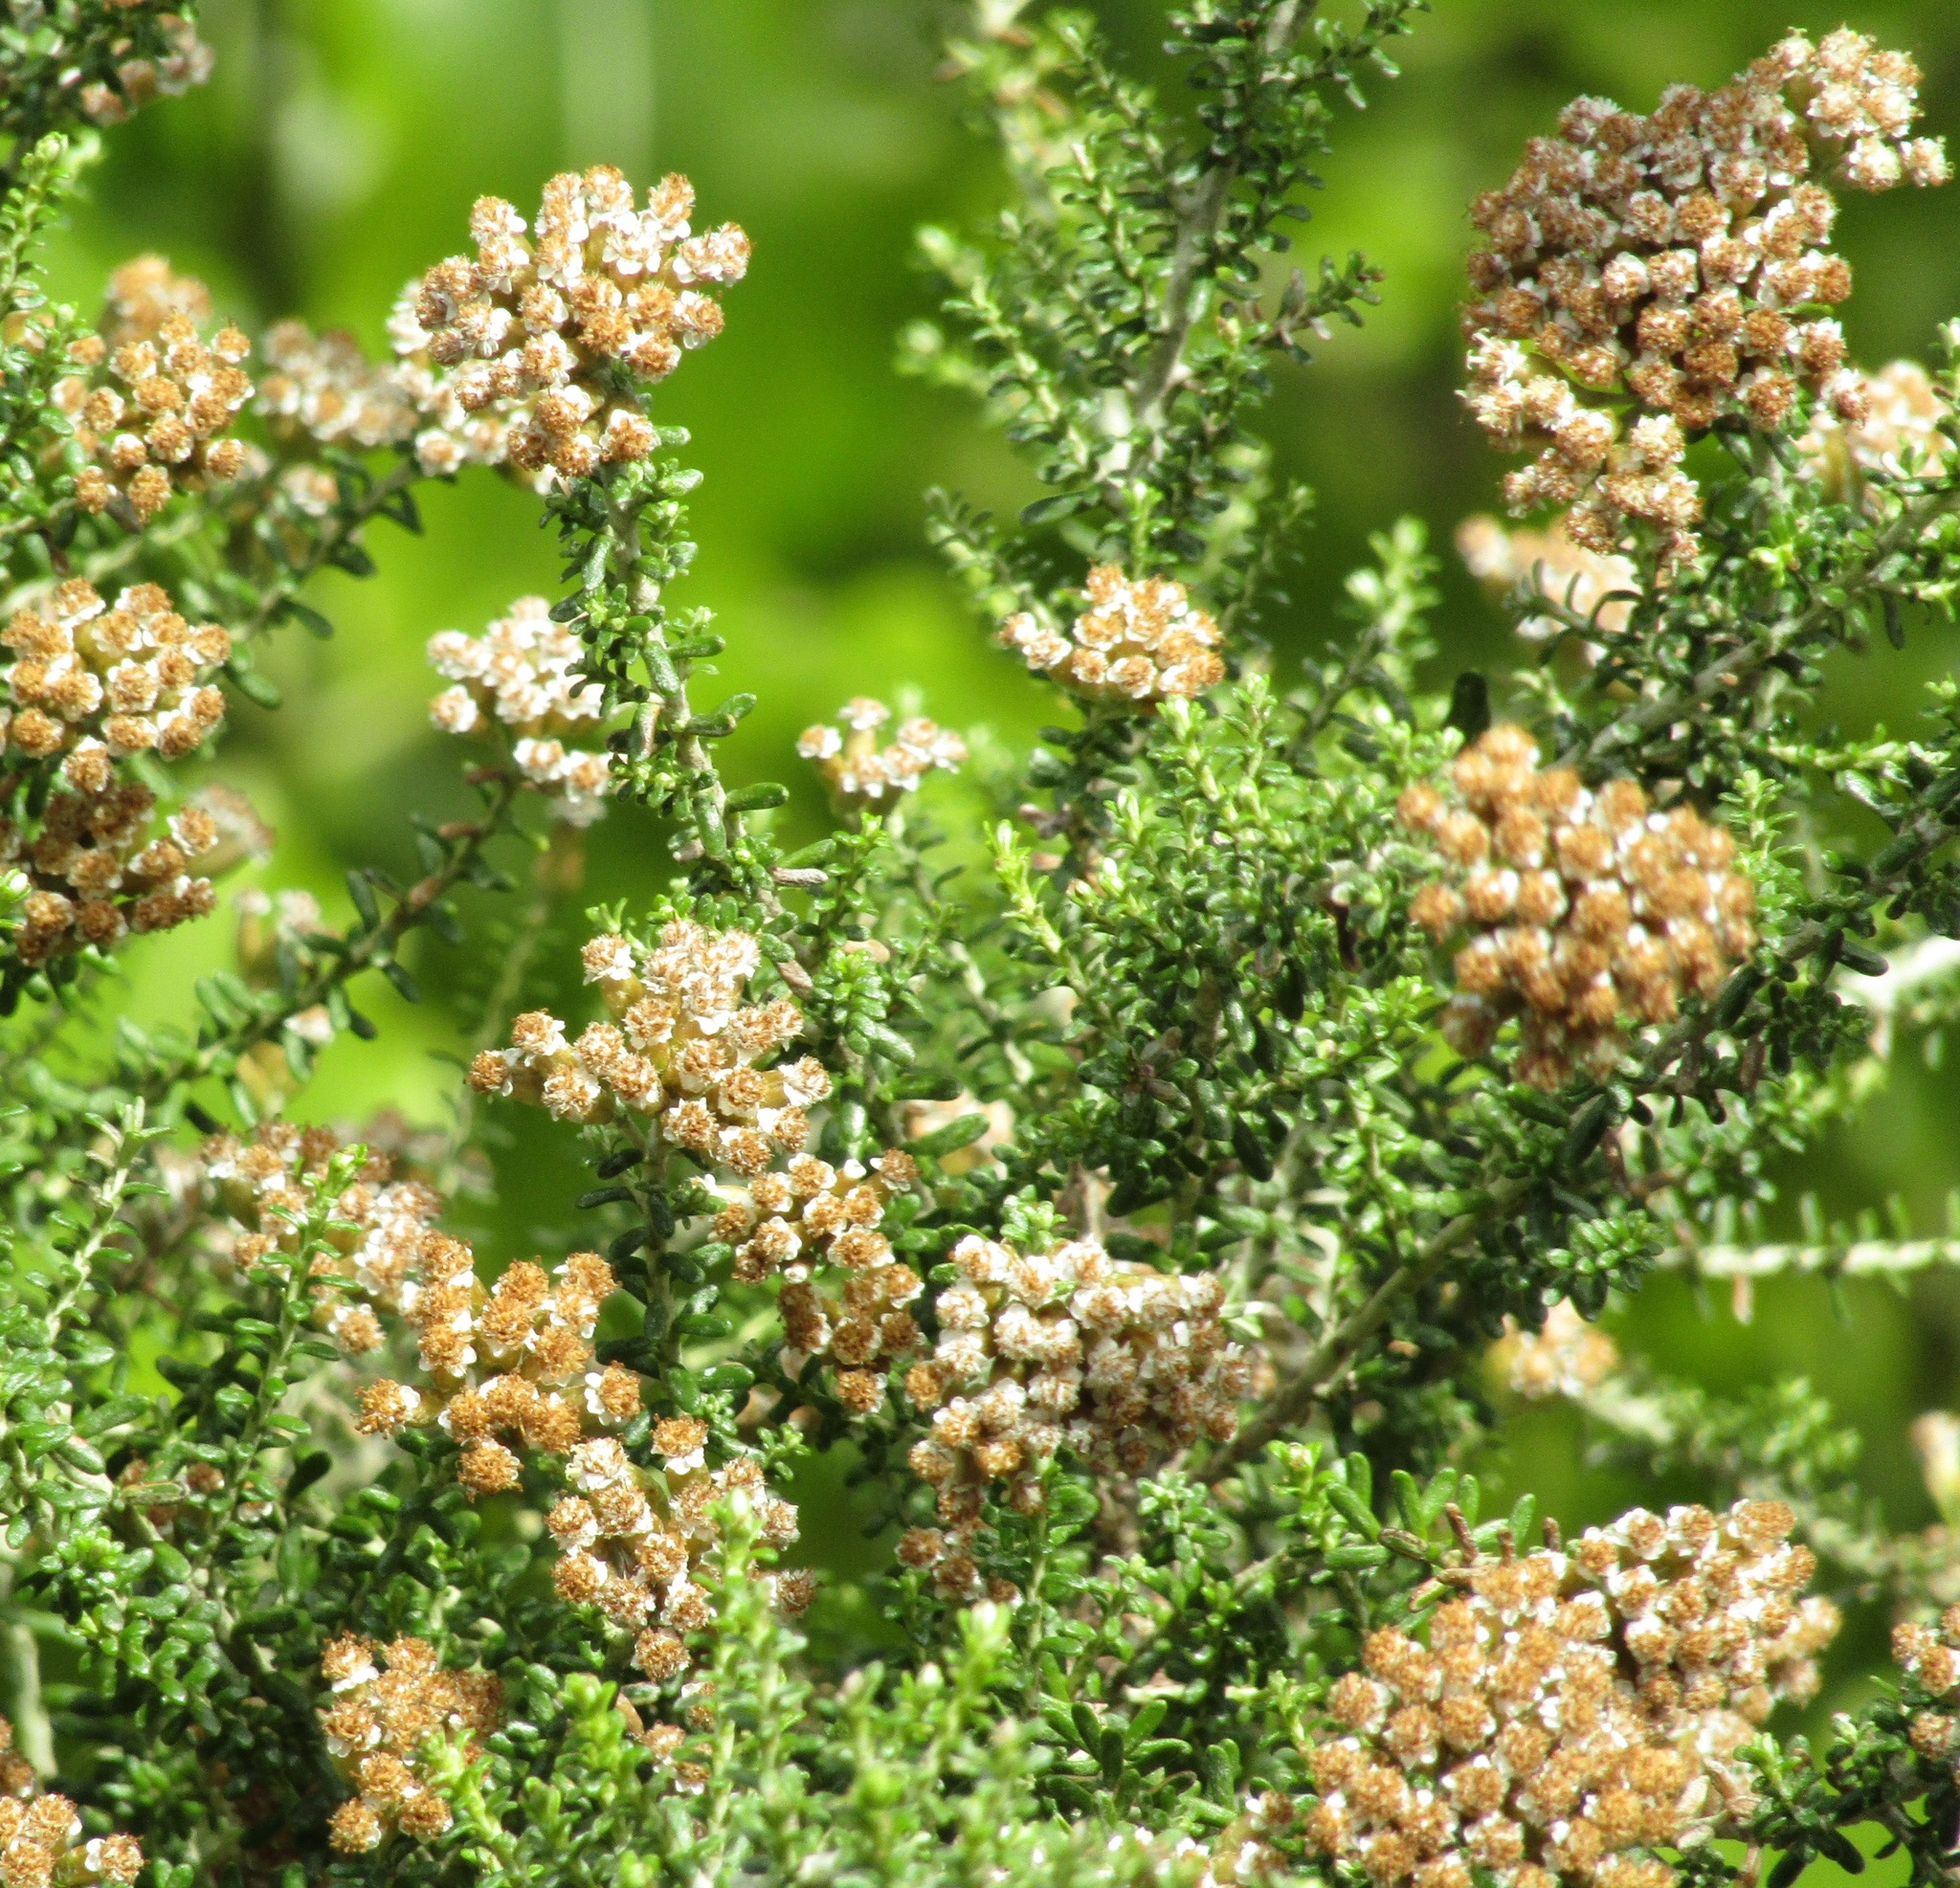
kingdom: Plantae
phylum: Tracheophyta
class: Magnoliopsida
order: Asterales
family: Asteraceae
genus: Ozothamnus
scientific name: Ozothamnus leptophyllus
